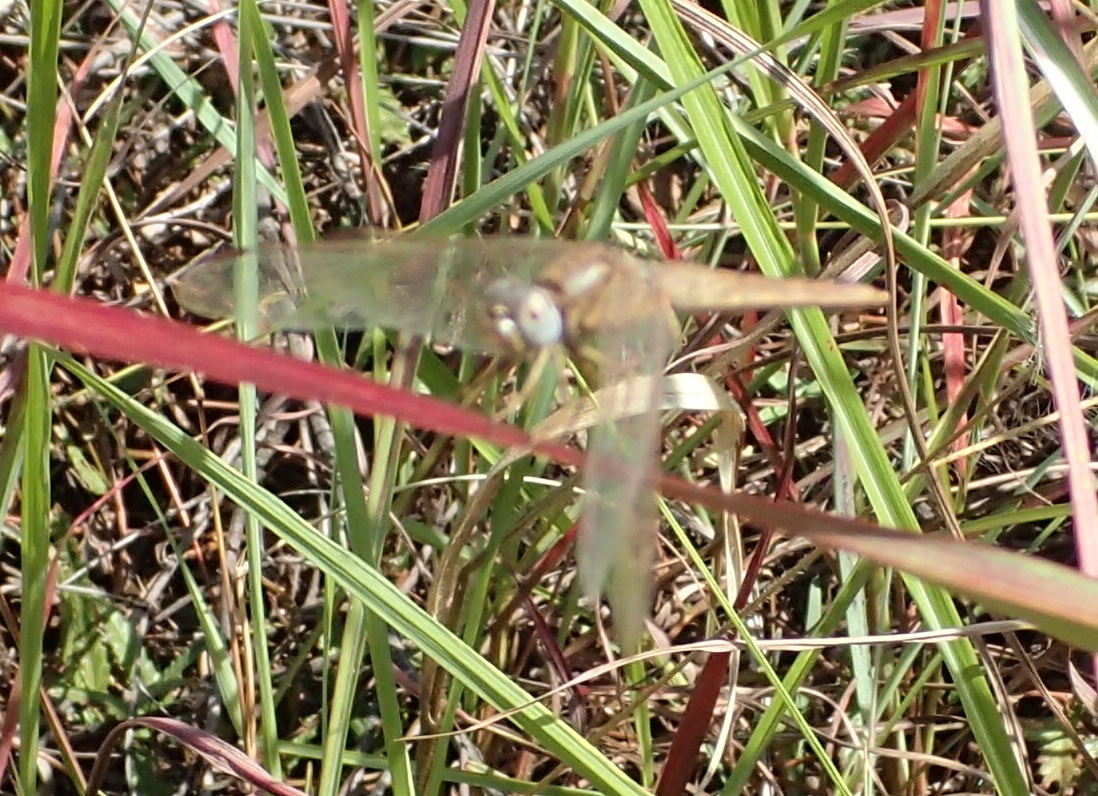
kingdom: Animalia
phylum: Arthropoda
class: Insecta
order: Odonata
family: Libellulidae
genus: Crocothemis
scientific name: Crocothemis erythraea
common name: Scarlet dragonfly
